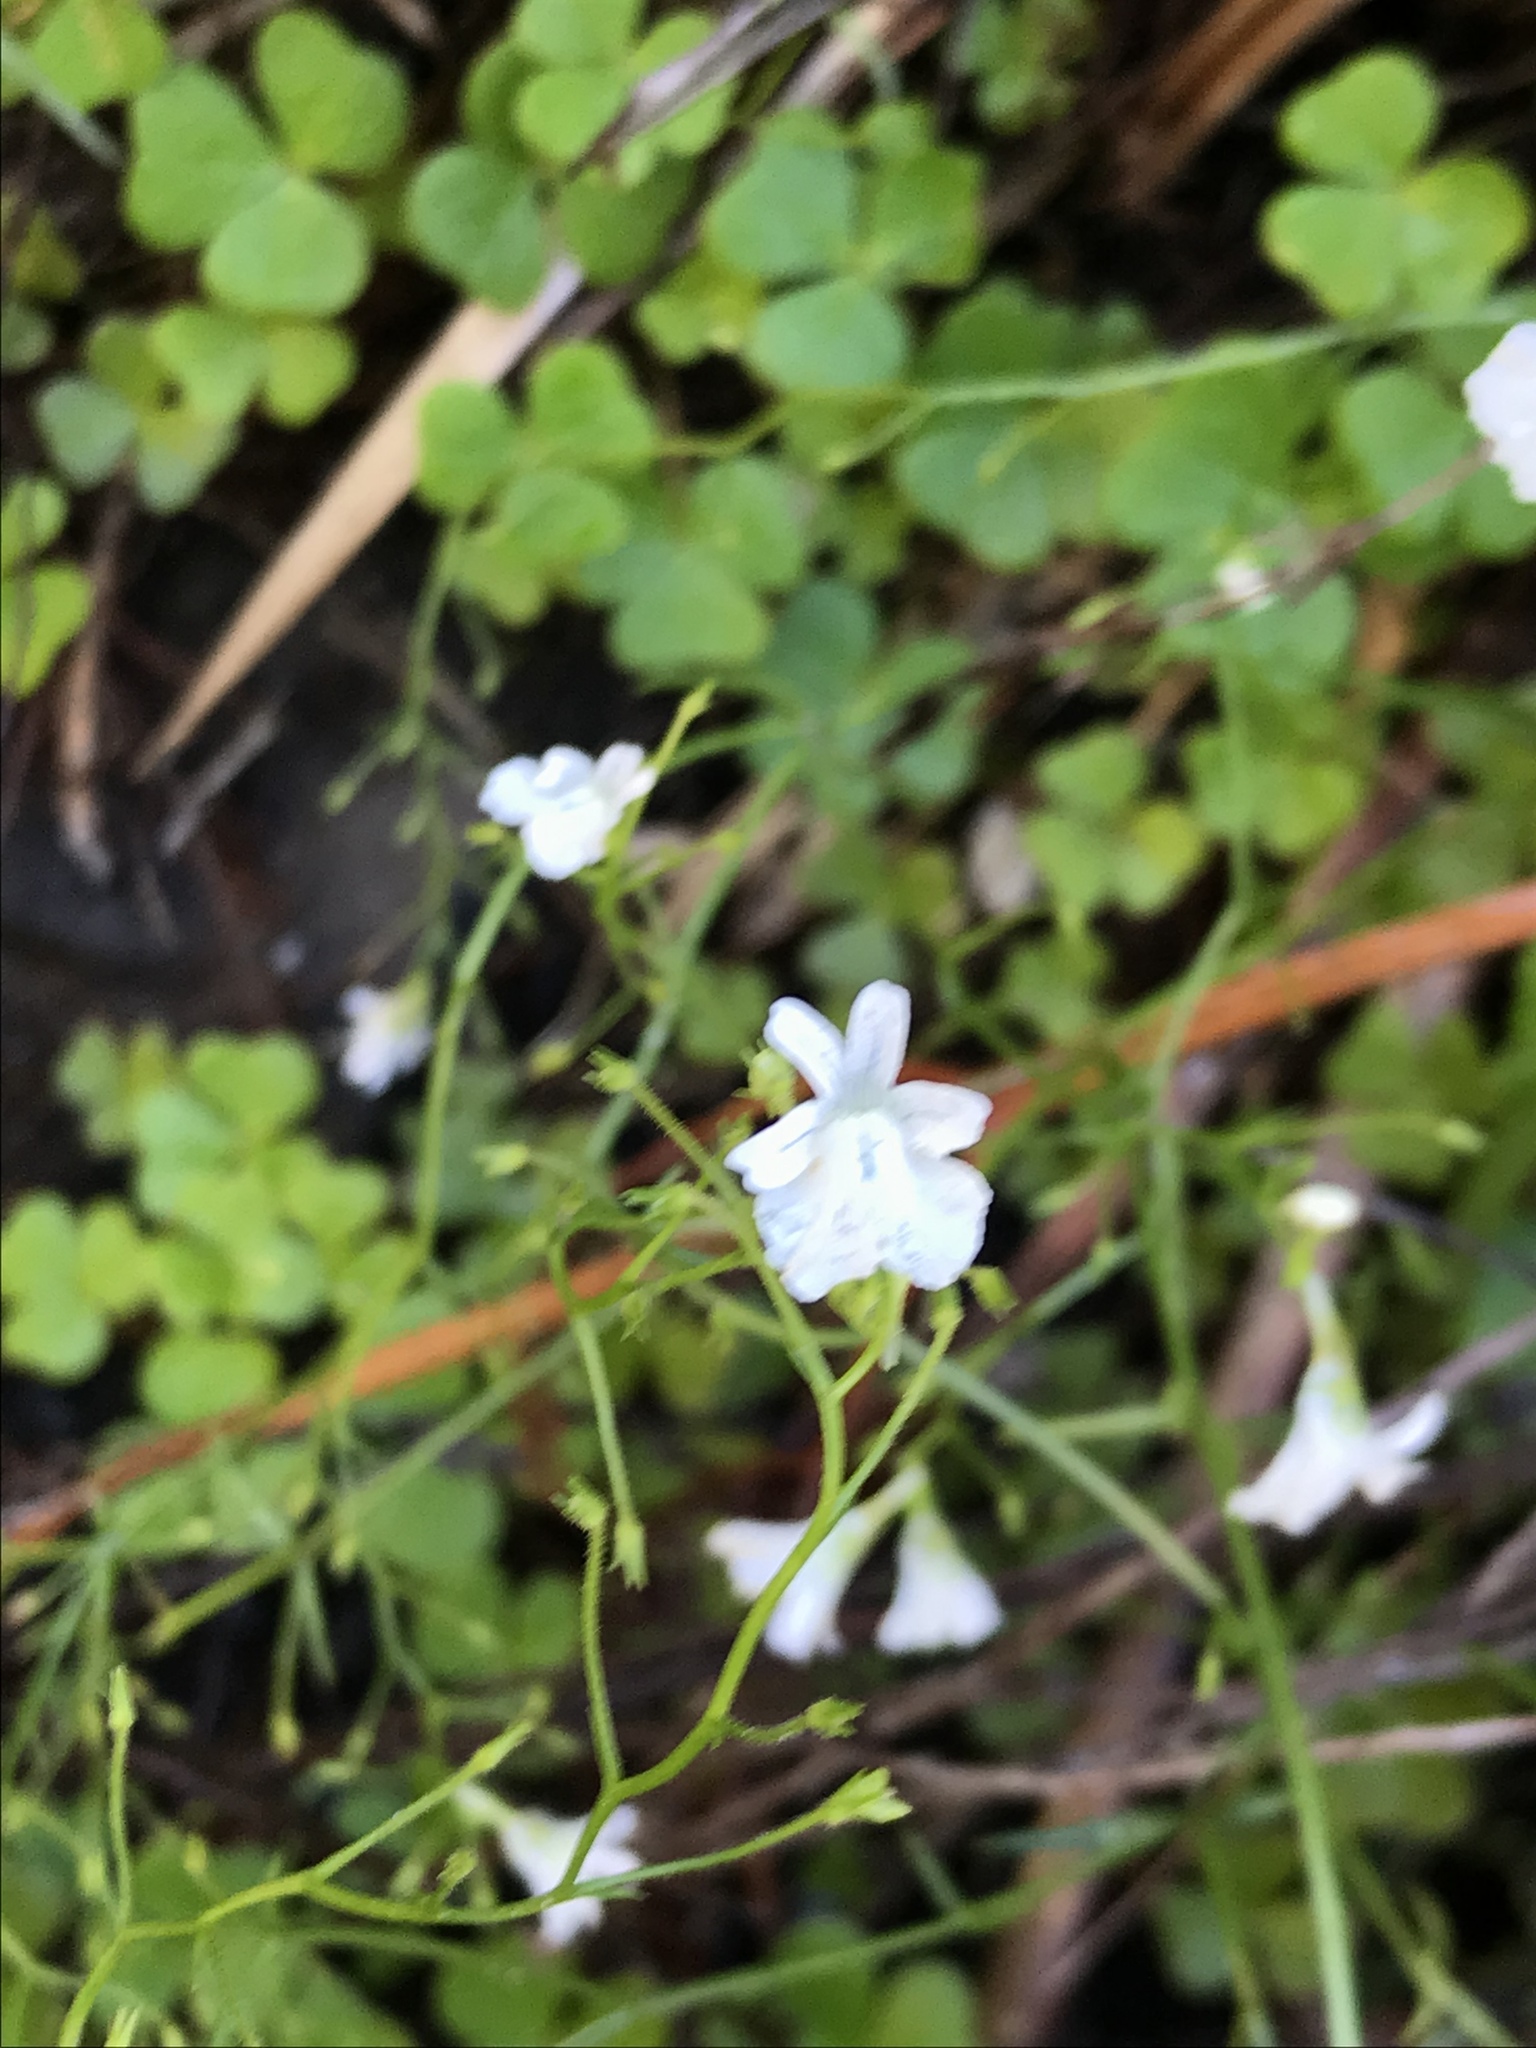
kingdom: Plantae
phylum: Tracheophyta
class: Magnoliopsida
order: Lamiales
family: Scrophulariaceae
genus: Nemesia
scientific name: Nemesia diffusa
